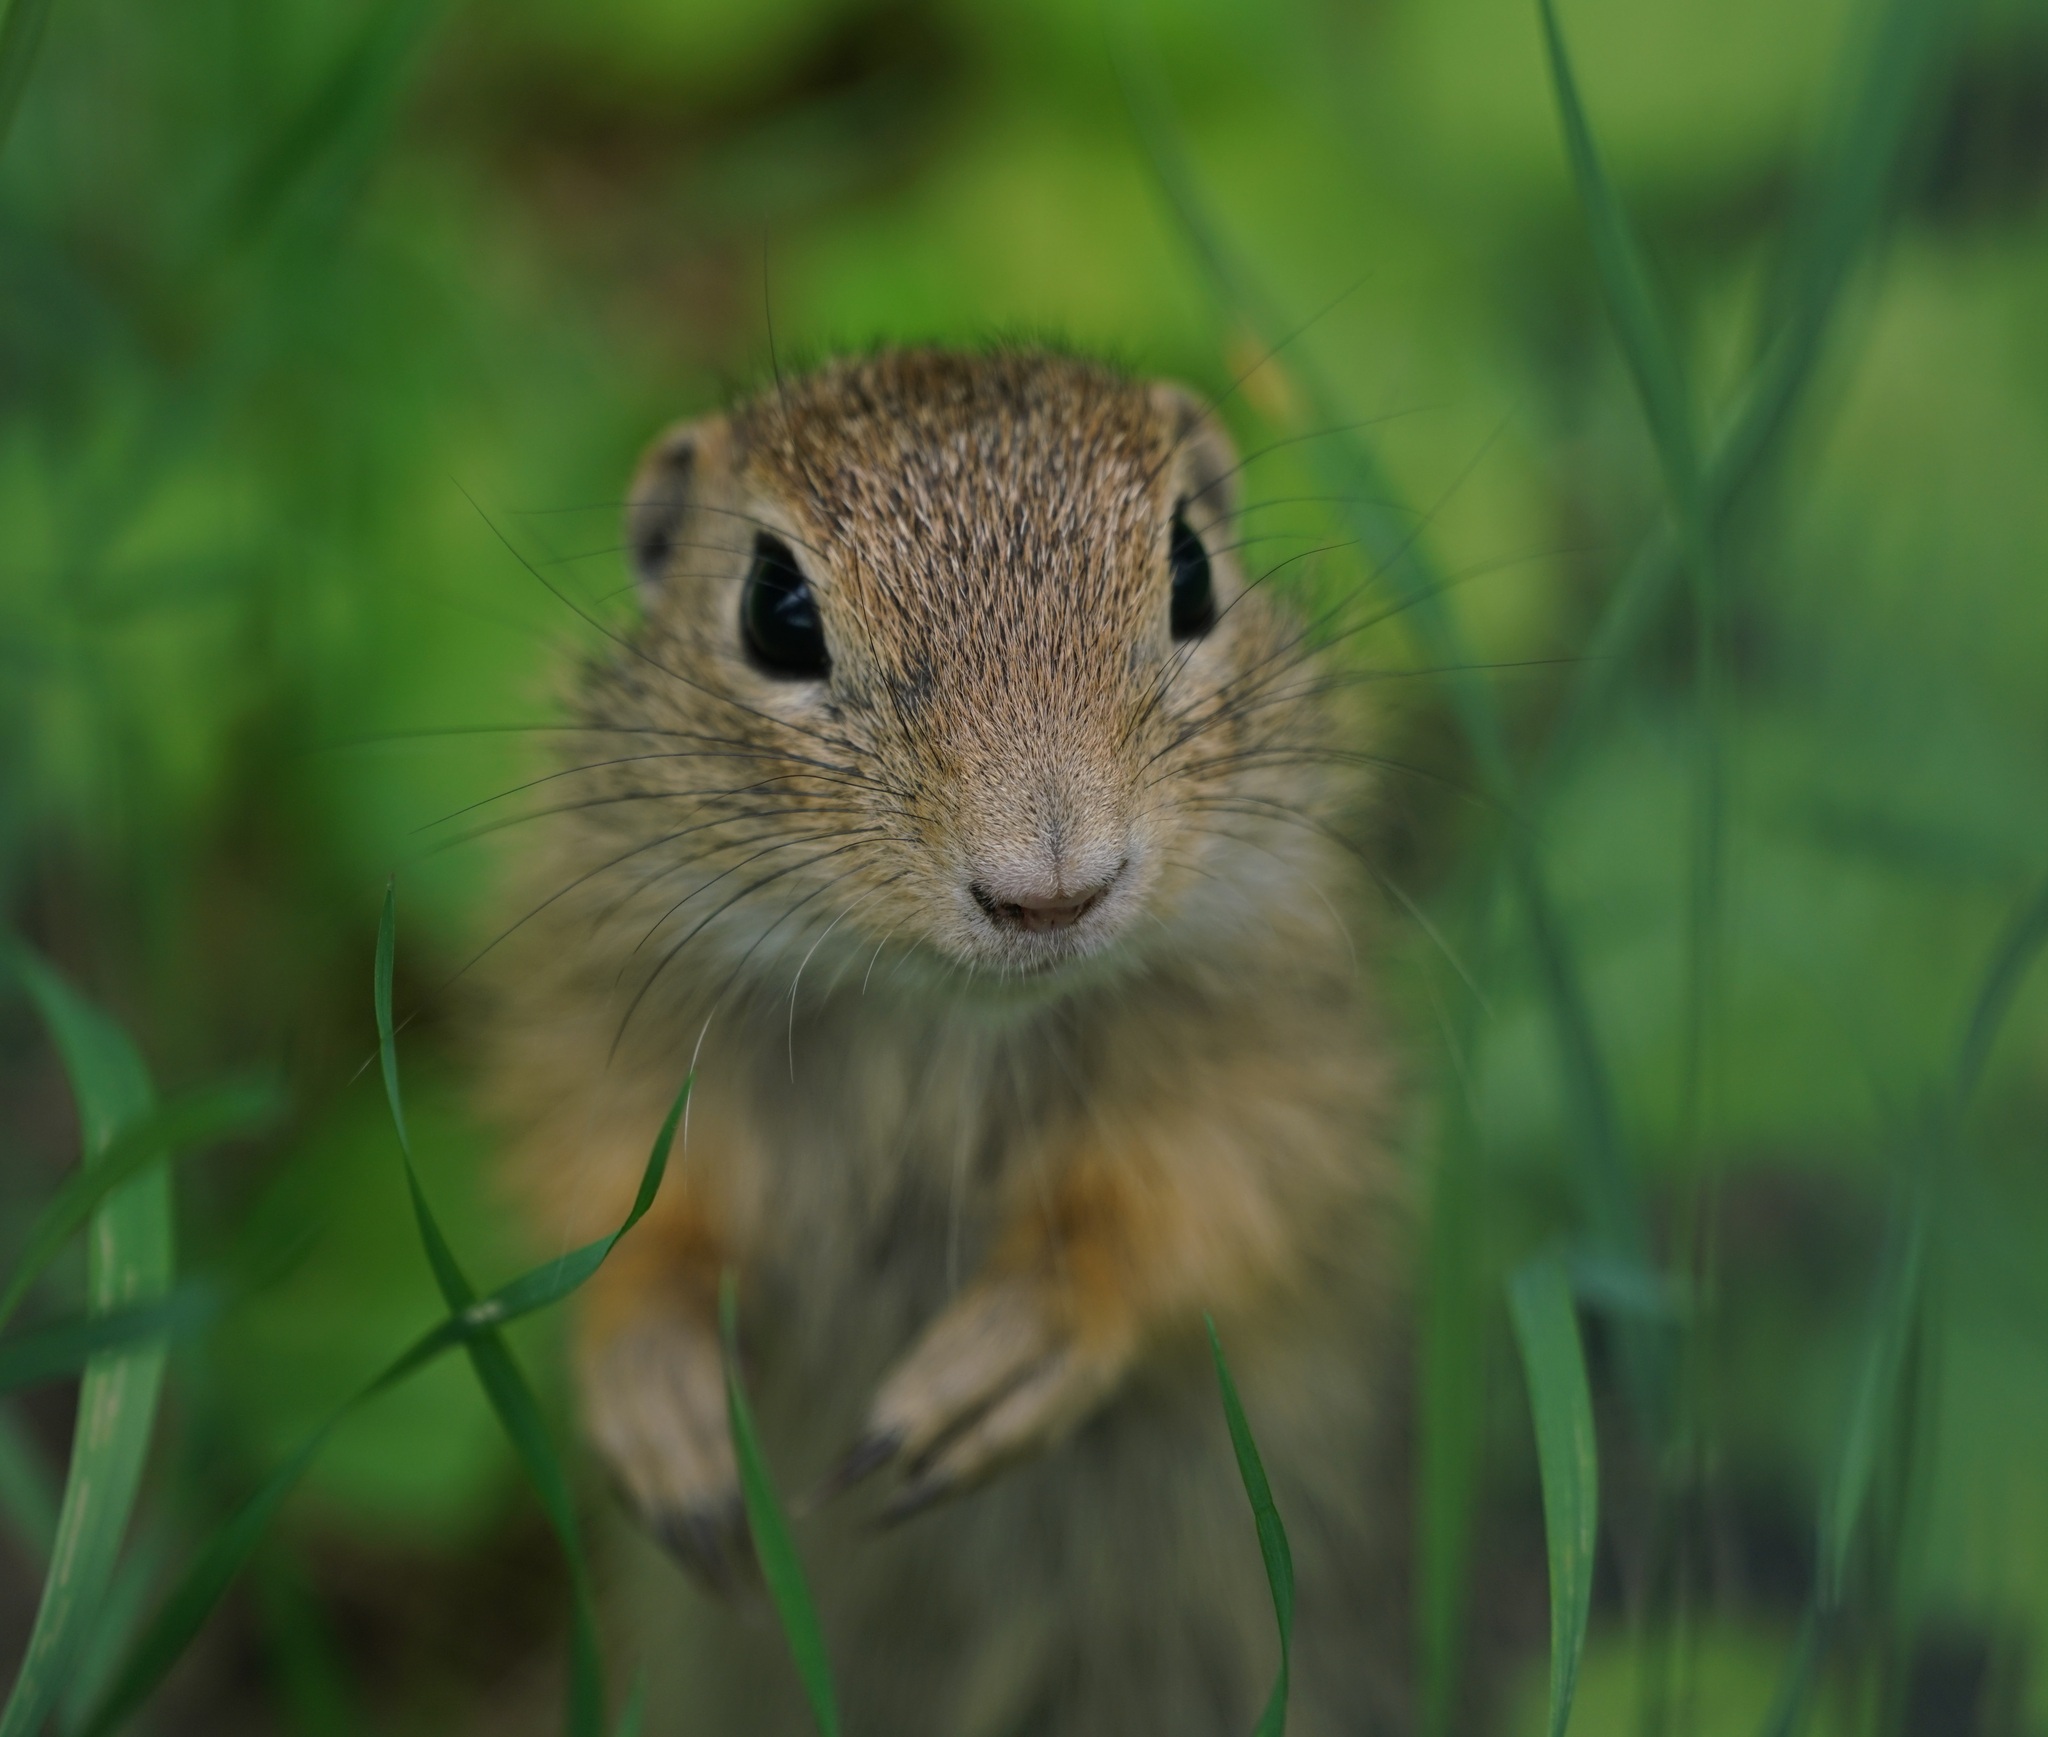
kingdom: Animalia
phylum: Chordata
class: Mammalia
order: Rodentia
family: Sciuridae
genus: Spermophilus
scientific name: Spermophilus citellus
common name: European ground squirrel
